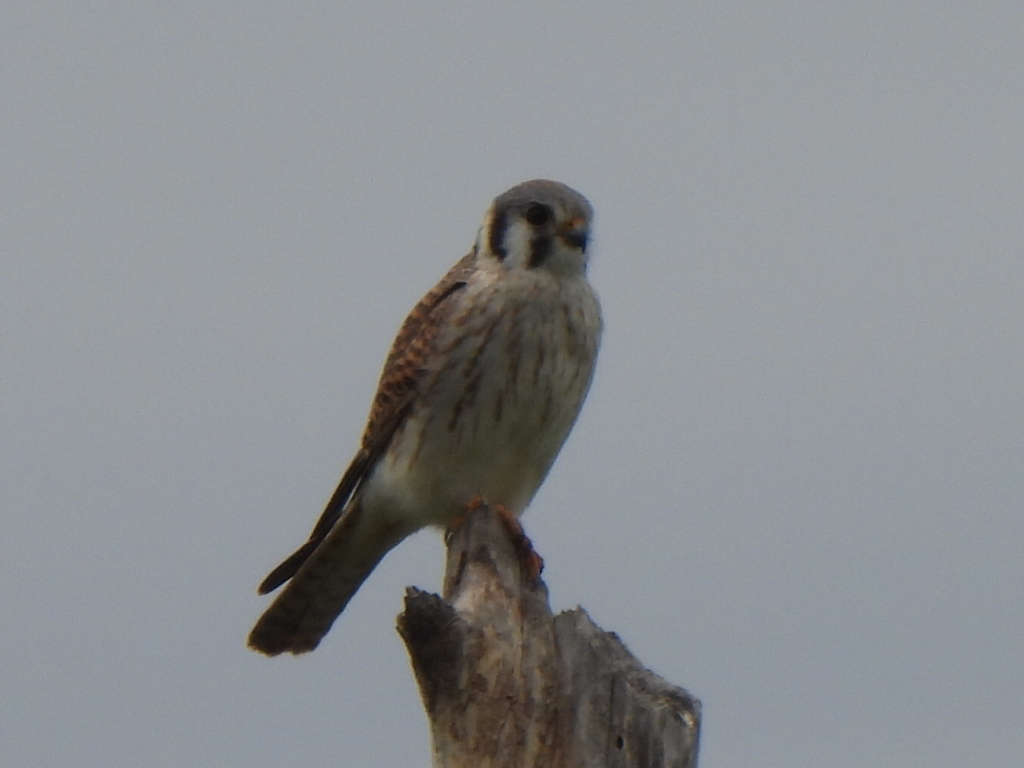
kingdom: Animalia
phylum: Chordata
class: Aves
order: Falconiformes
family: Falconidae
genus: Falco
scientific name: Falco sparverius
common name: American kestrel
